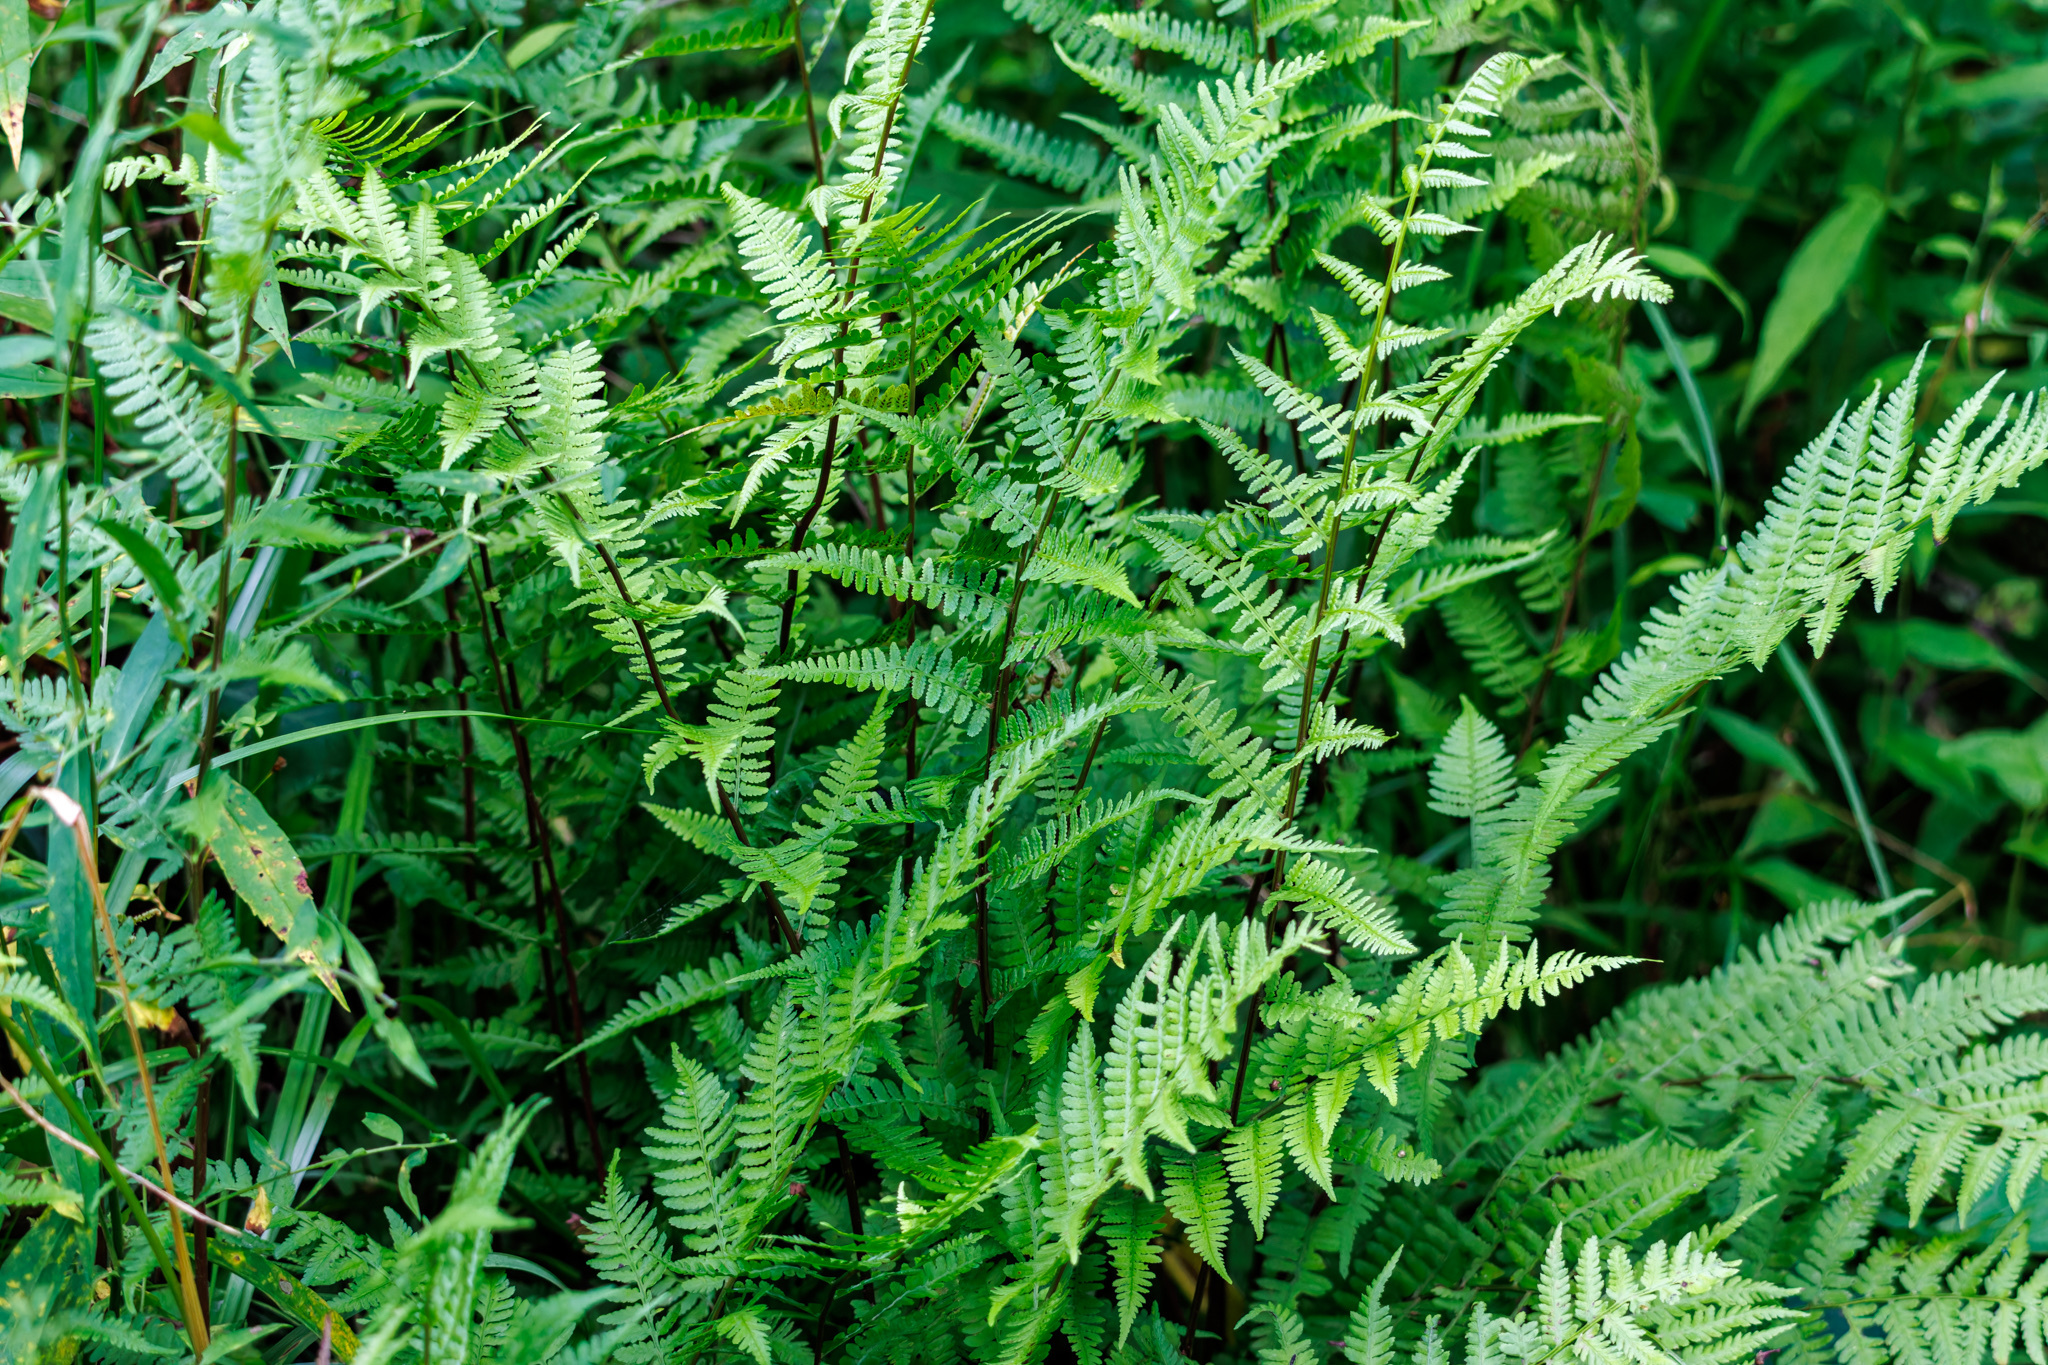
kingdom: Plantae
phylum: Tracheophyta
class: Polypodiopsida
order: Polypodiales
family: Athyriaceae
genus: Athyrium
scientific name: Athyrium asplenioides
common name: Southern lady fern
